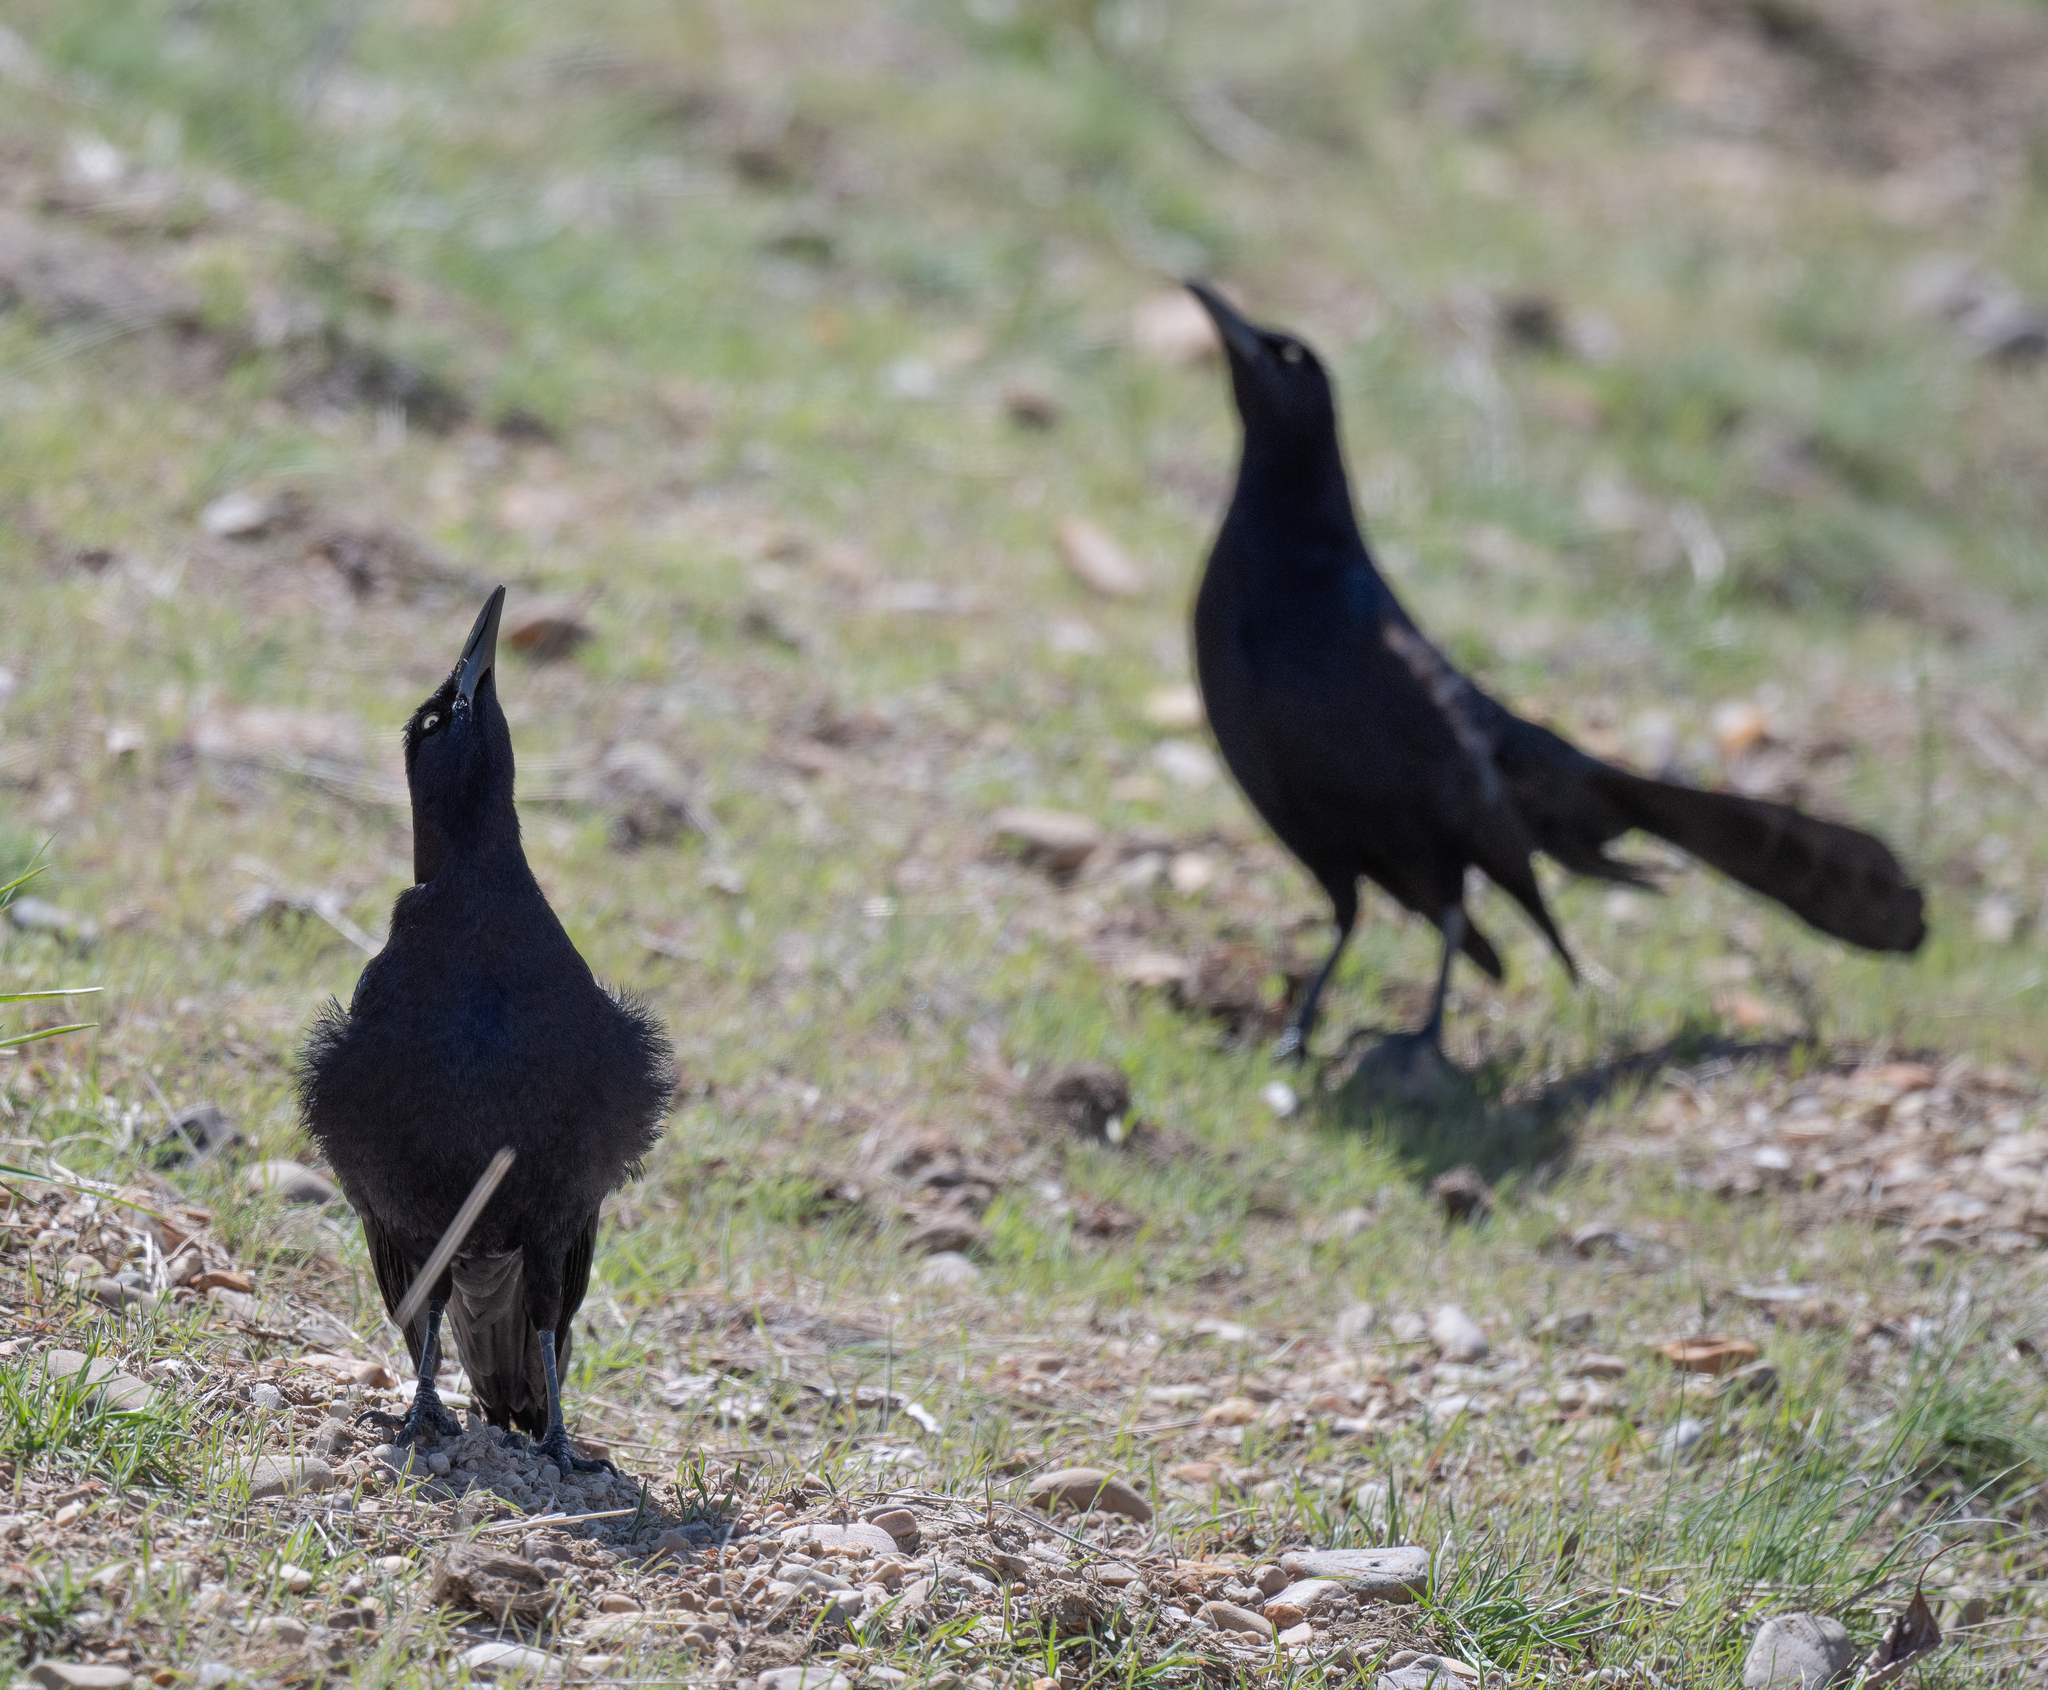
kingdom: Animalia
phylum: Chordata
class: Aves
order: Passeriformes
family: Icteridae
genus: Quiscalus
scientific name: Quiscalus mexicanus
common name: Great-tailed grackle
